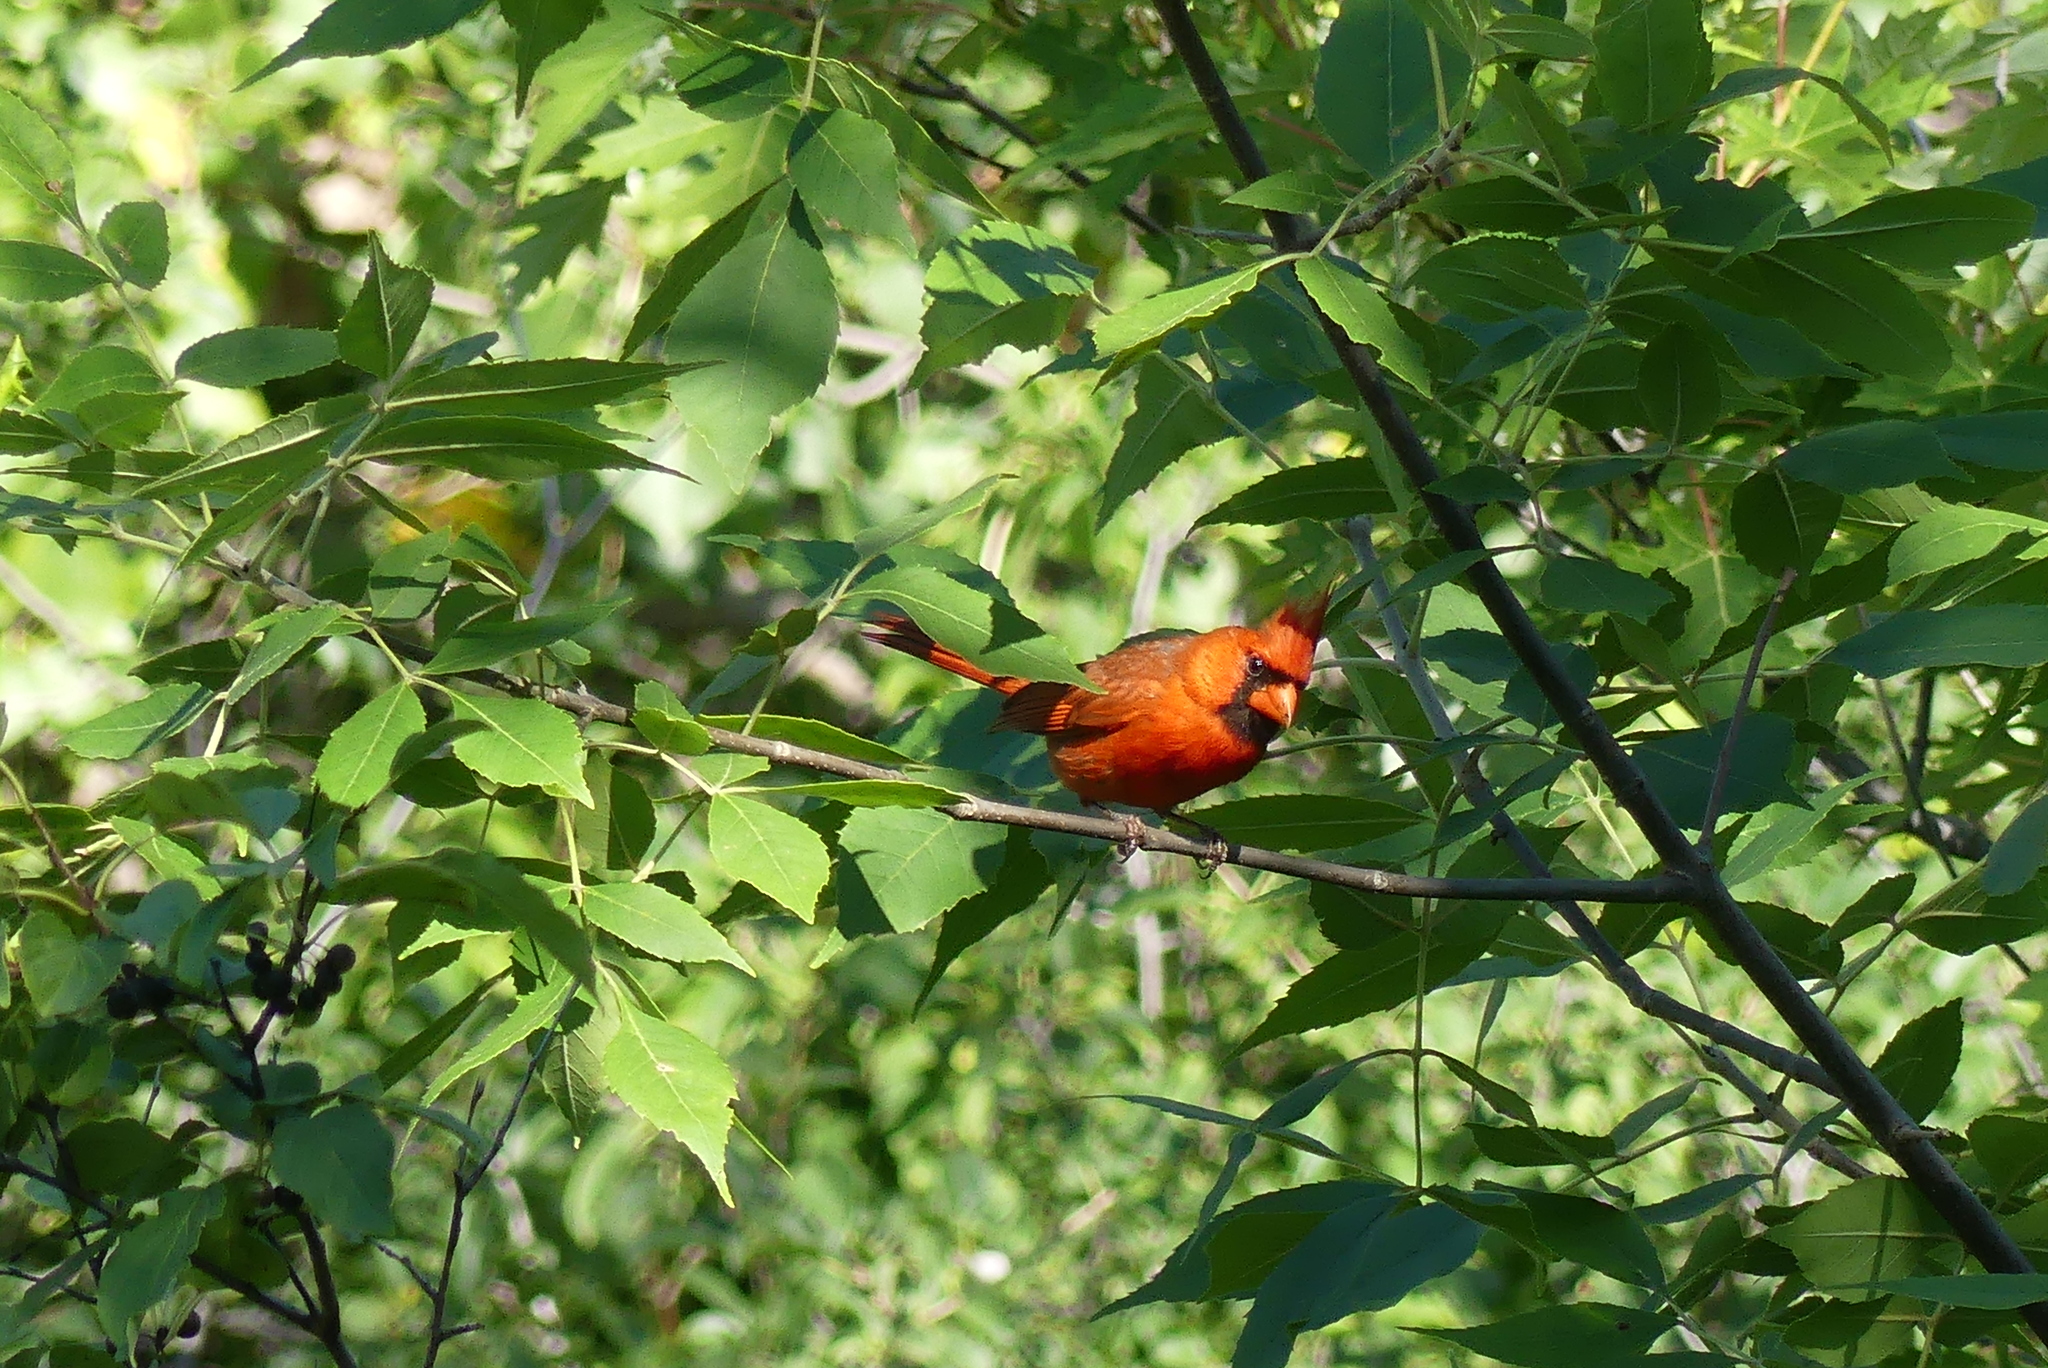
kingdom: Animalia
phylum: Chordata
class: Aves
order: Passeriformes
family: Cardinalidae
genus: Cardinalis
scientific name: Cardinalis cardinalis
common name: Northern cardinal
